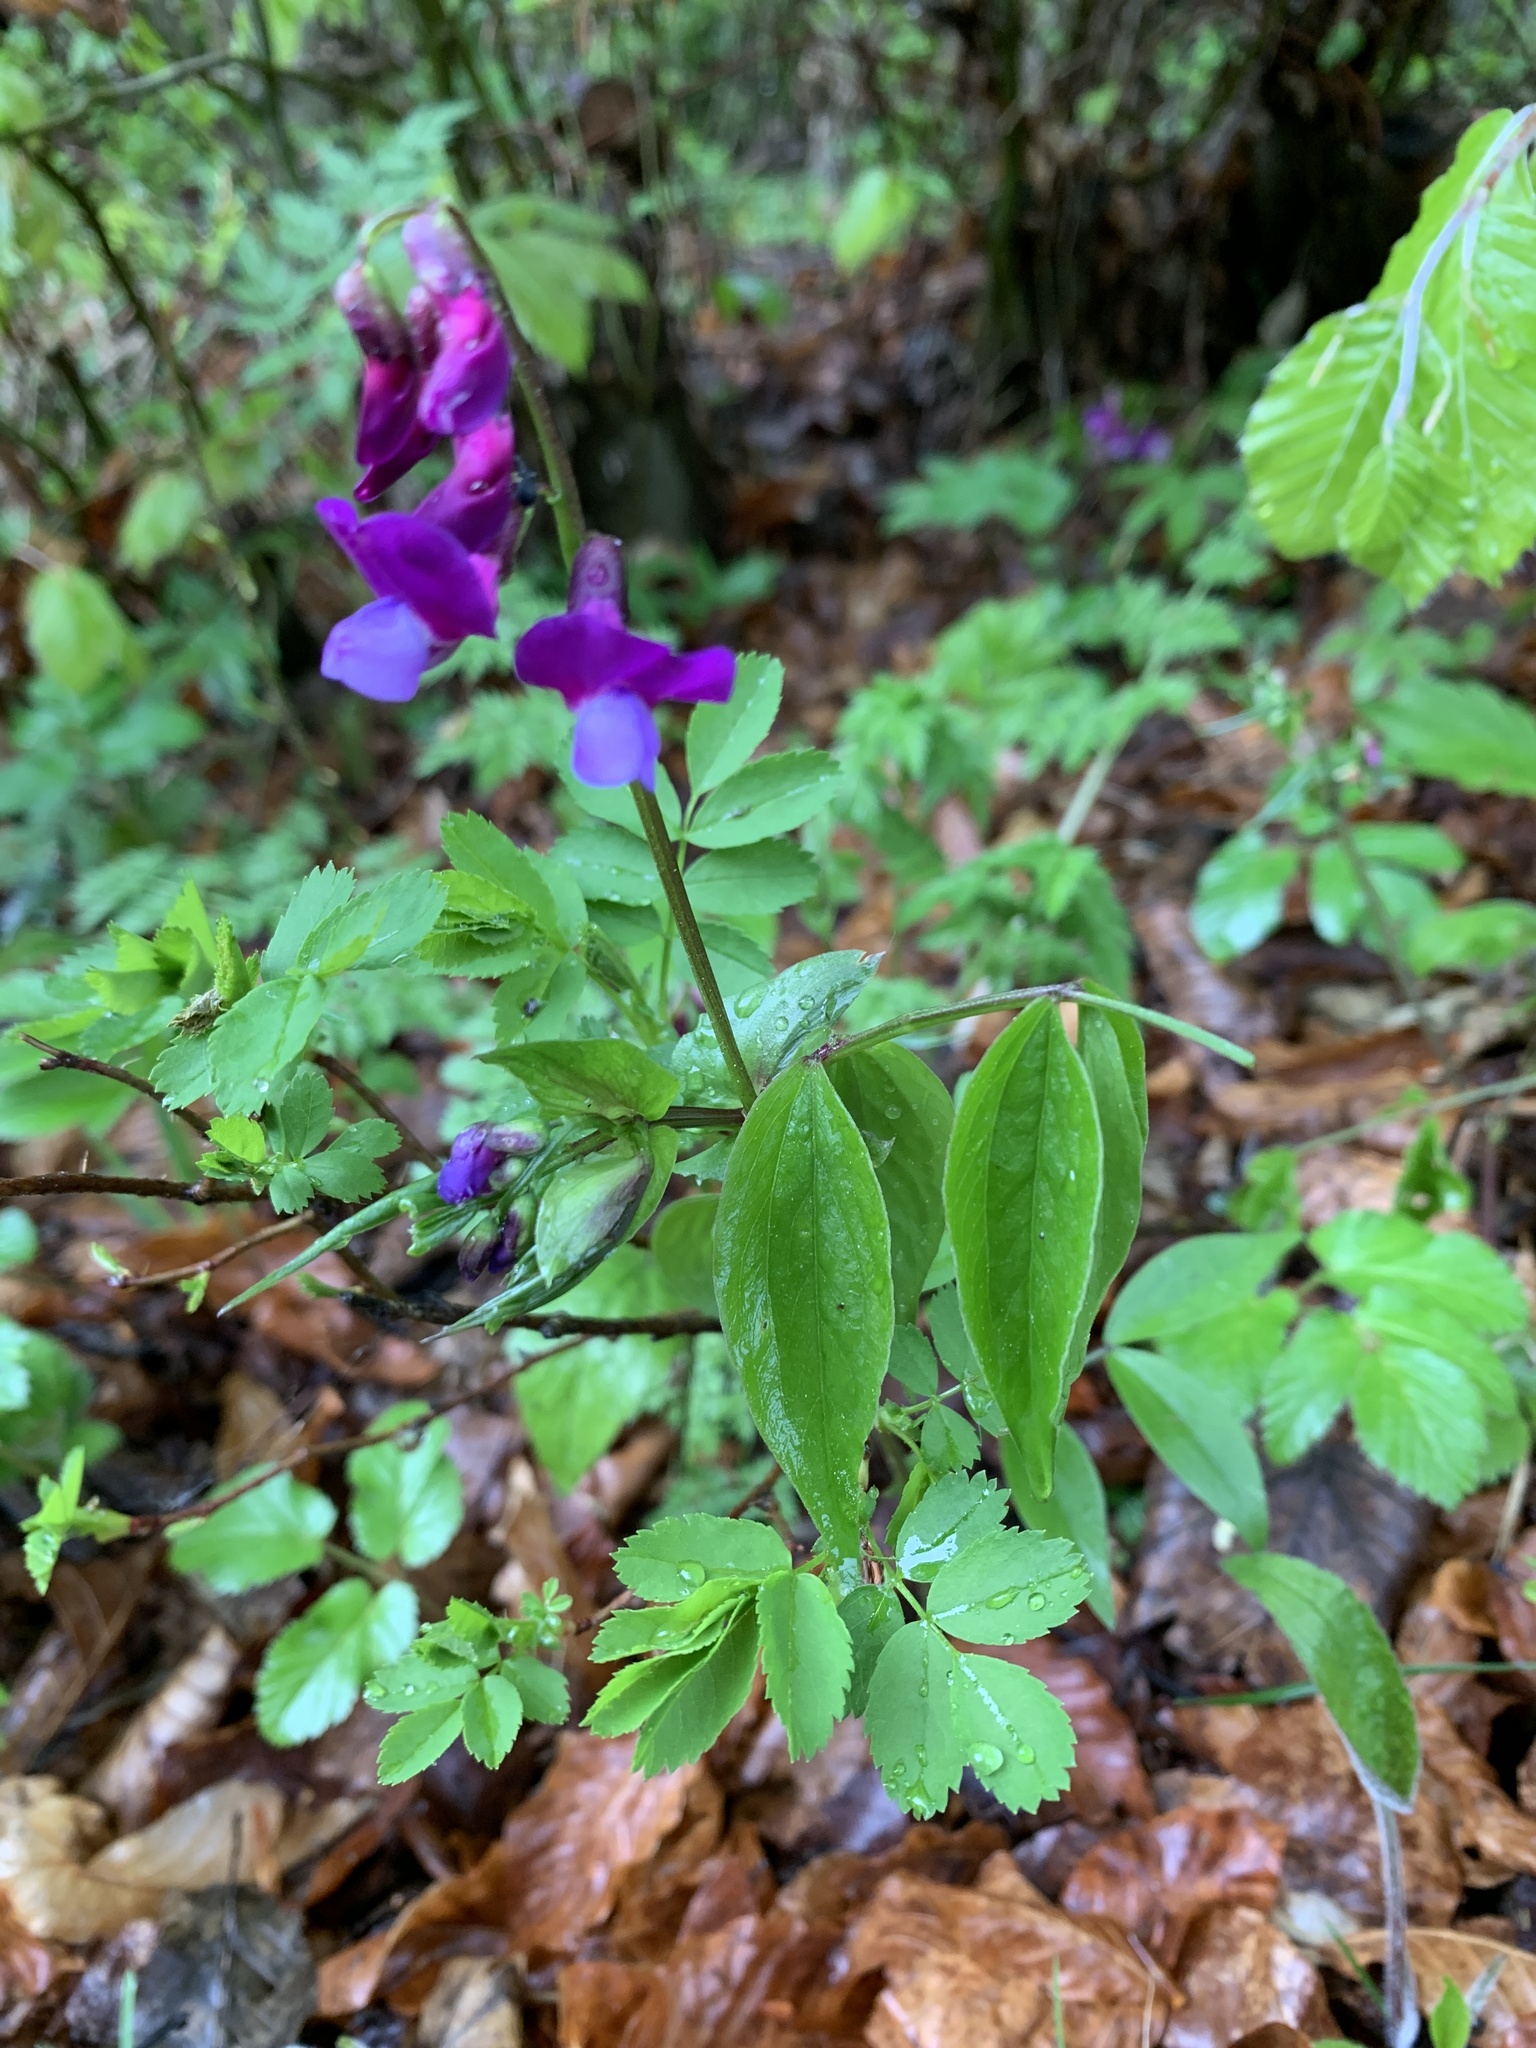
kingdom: Plantae
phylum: Tracheophyta
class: Magnoliopsida
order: Fabales
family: Fabaceae
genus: Lathyrus
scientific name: Lathyrus vernus
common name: Spring pea
